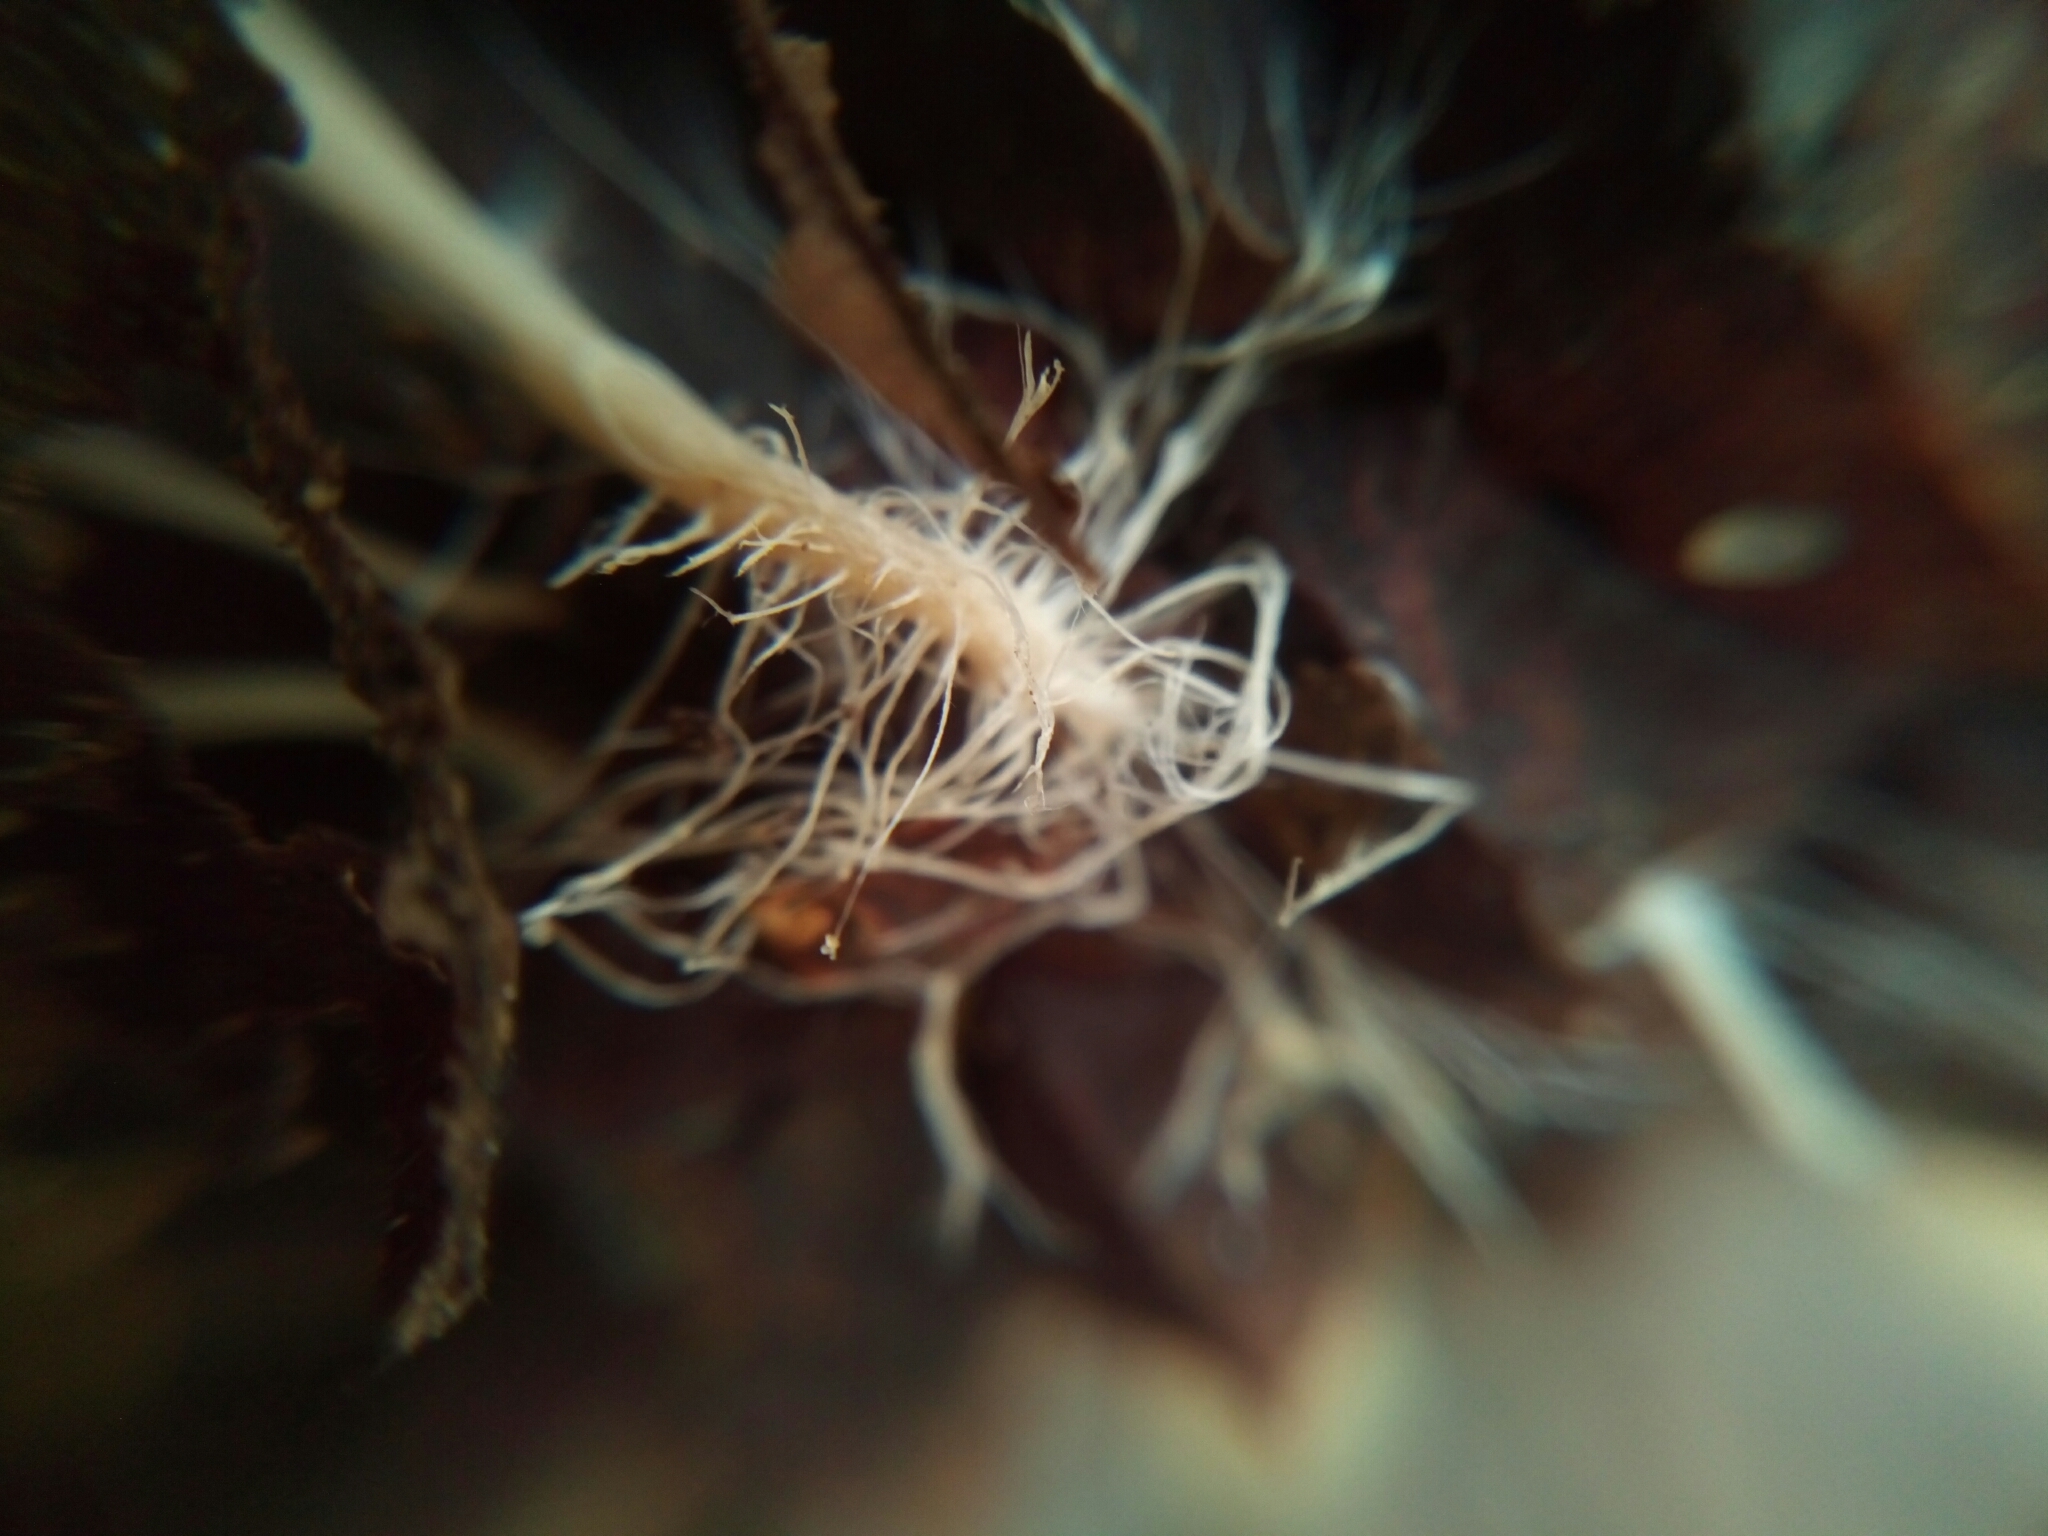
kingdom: Fungi
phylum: Basidiomycota
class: Agaricomycetes
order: Agaricales
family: Marasmiaceae
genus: Baeospora
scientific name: Baeospora myosura
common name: Conifercone cap
